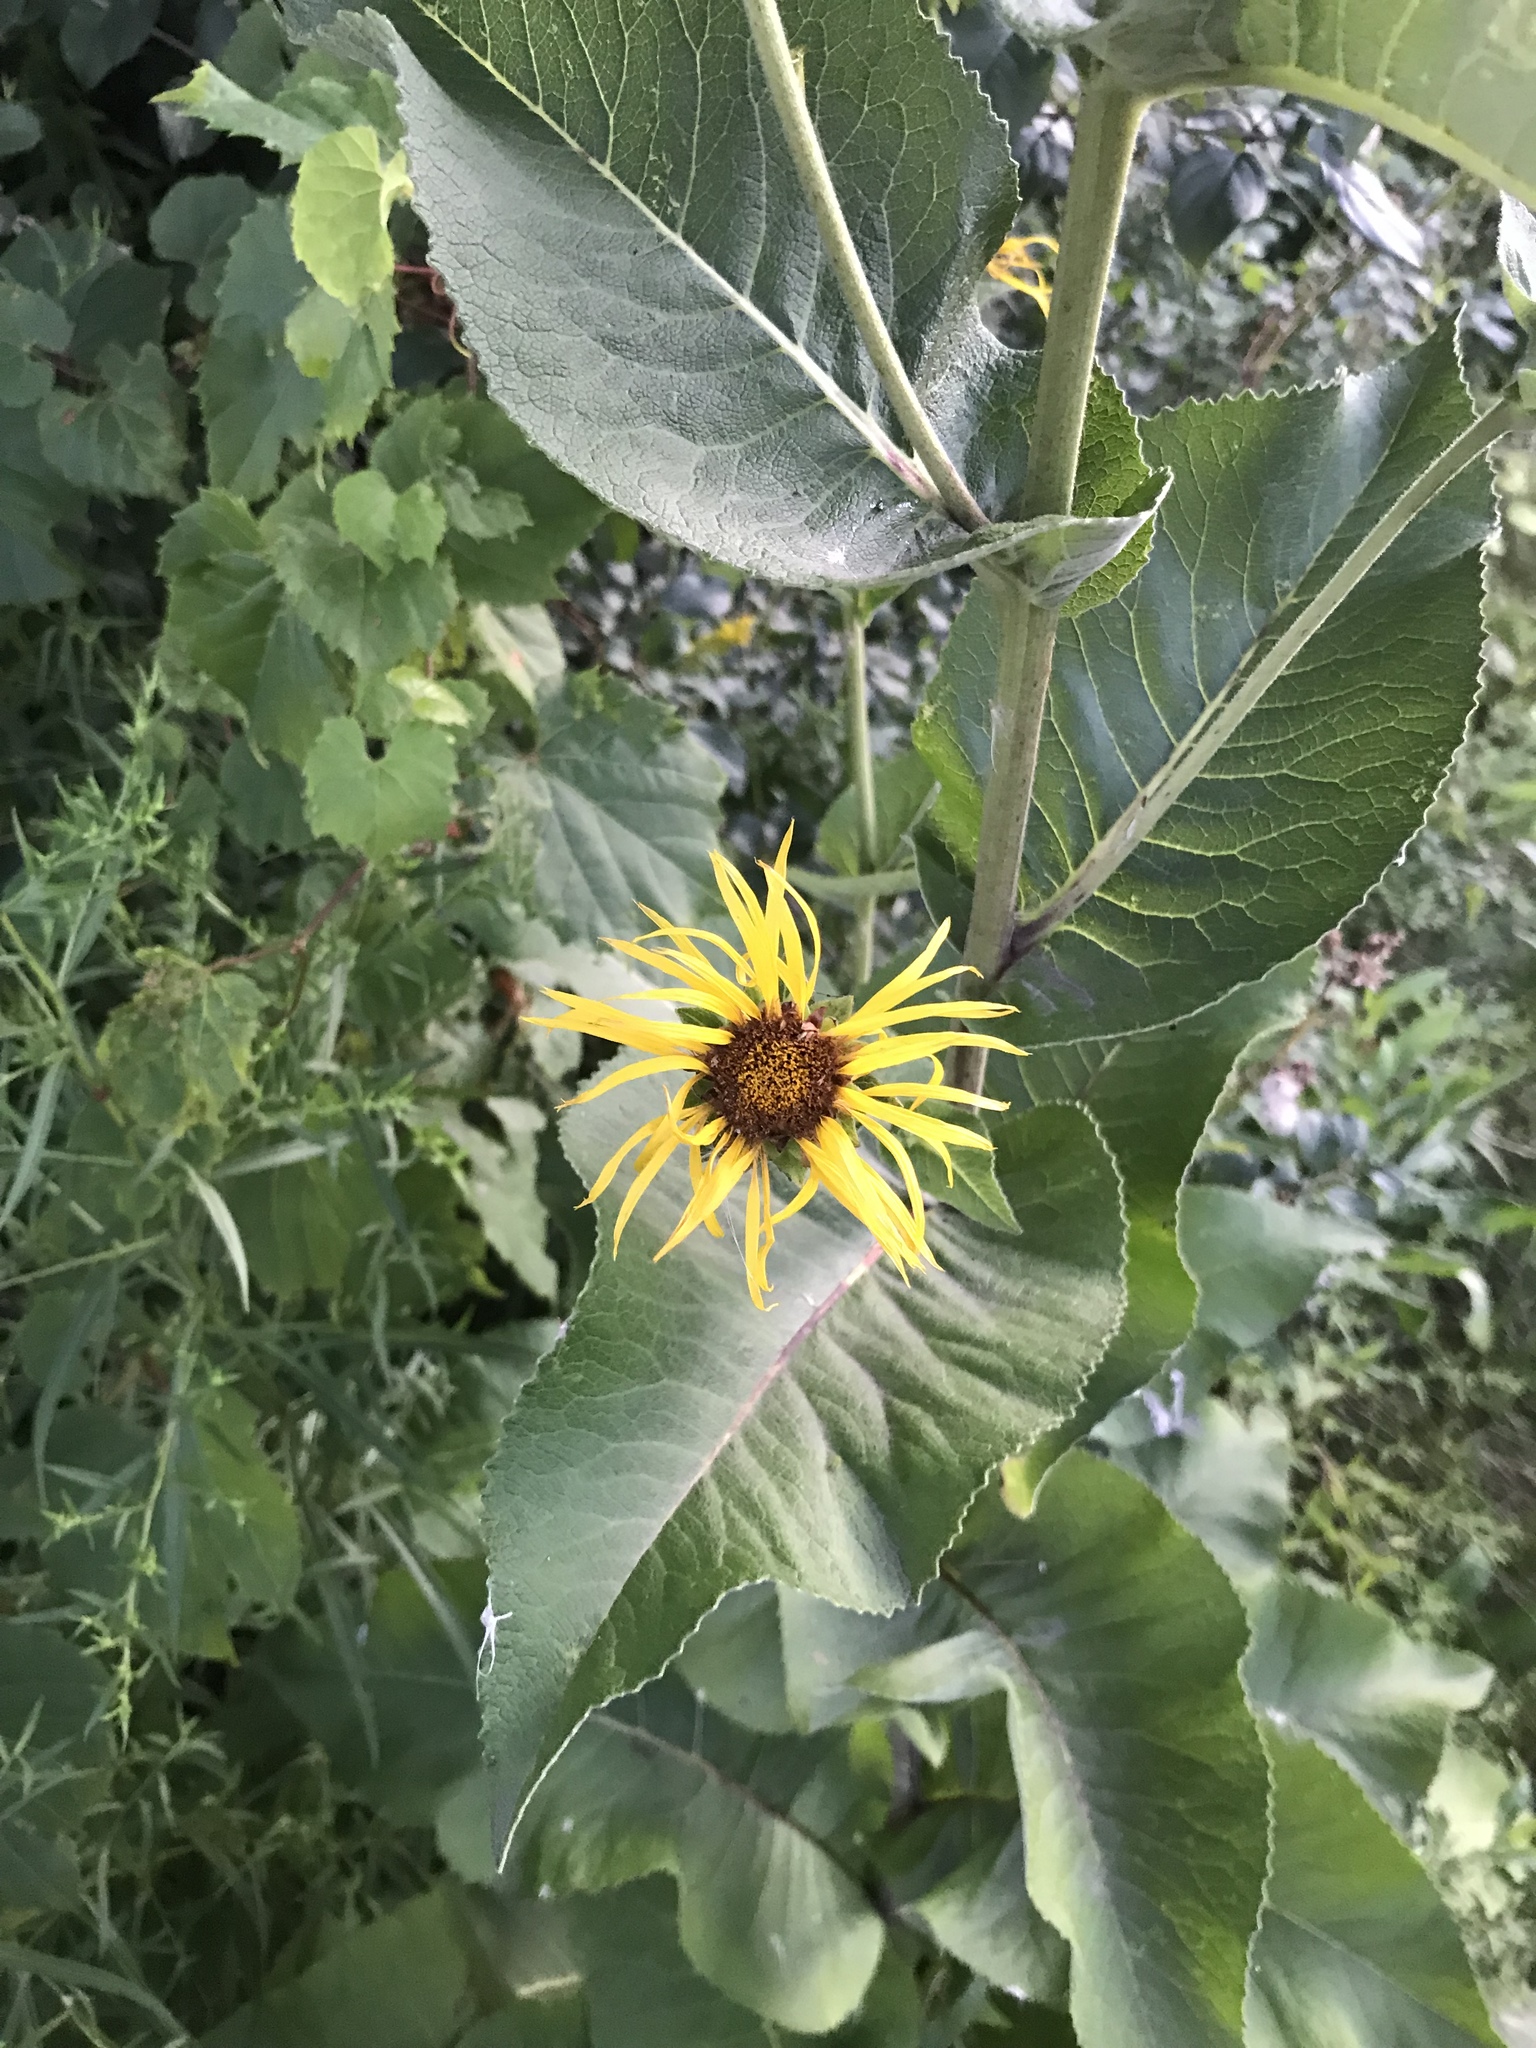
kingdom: Plantae
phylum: Tracheophyta
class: Magnoliopsida
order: Asterales
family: Asteraceae
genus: Inula
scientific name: Inula helenium
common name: Elecampane
